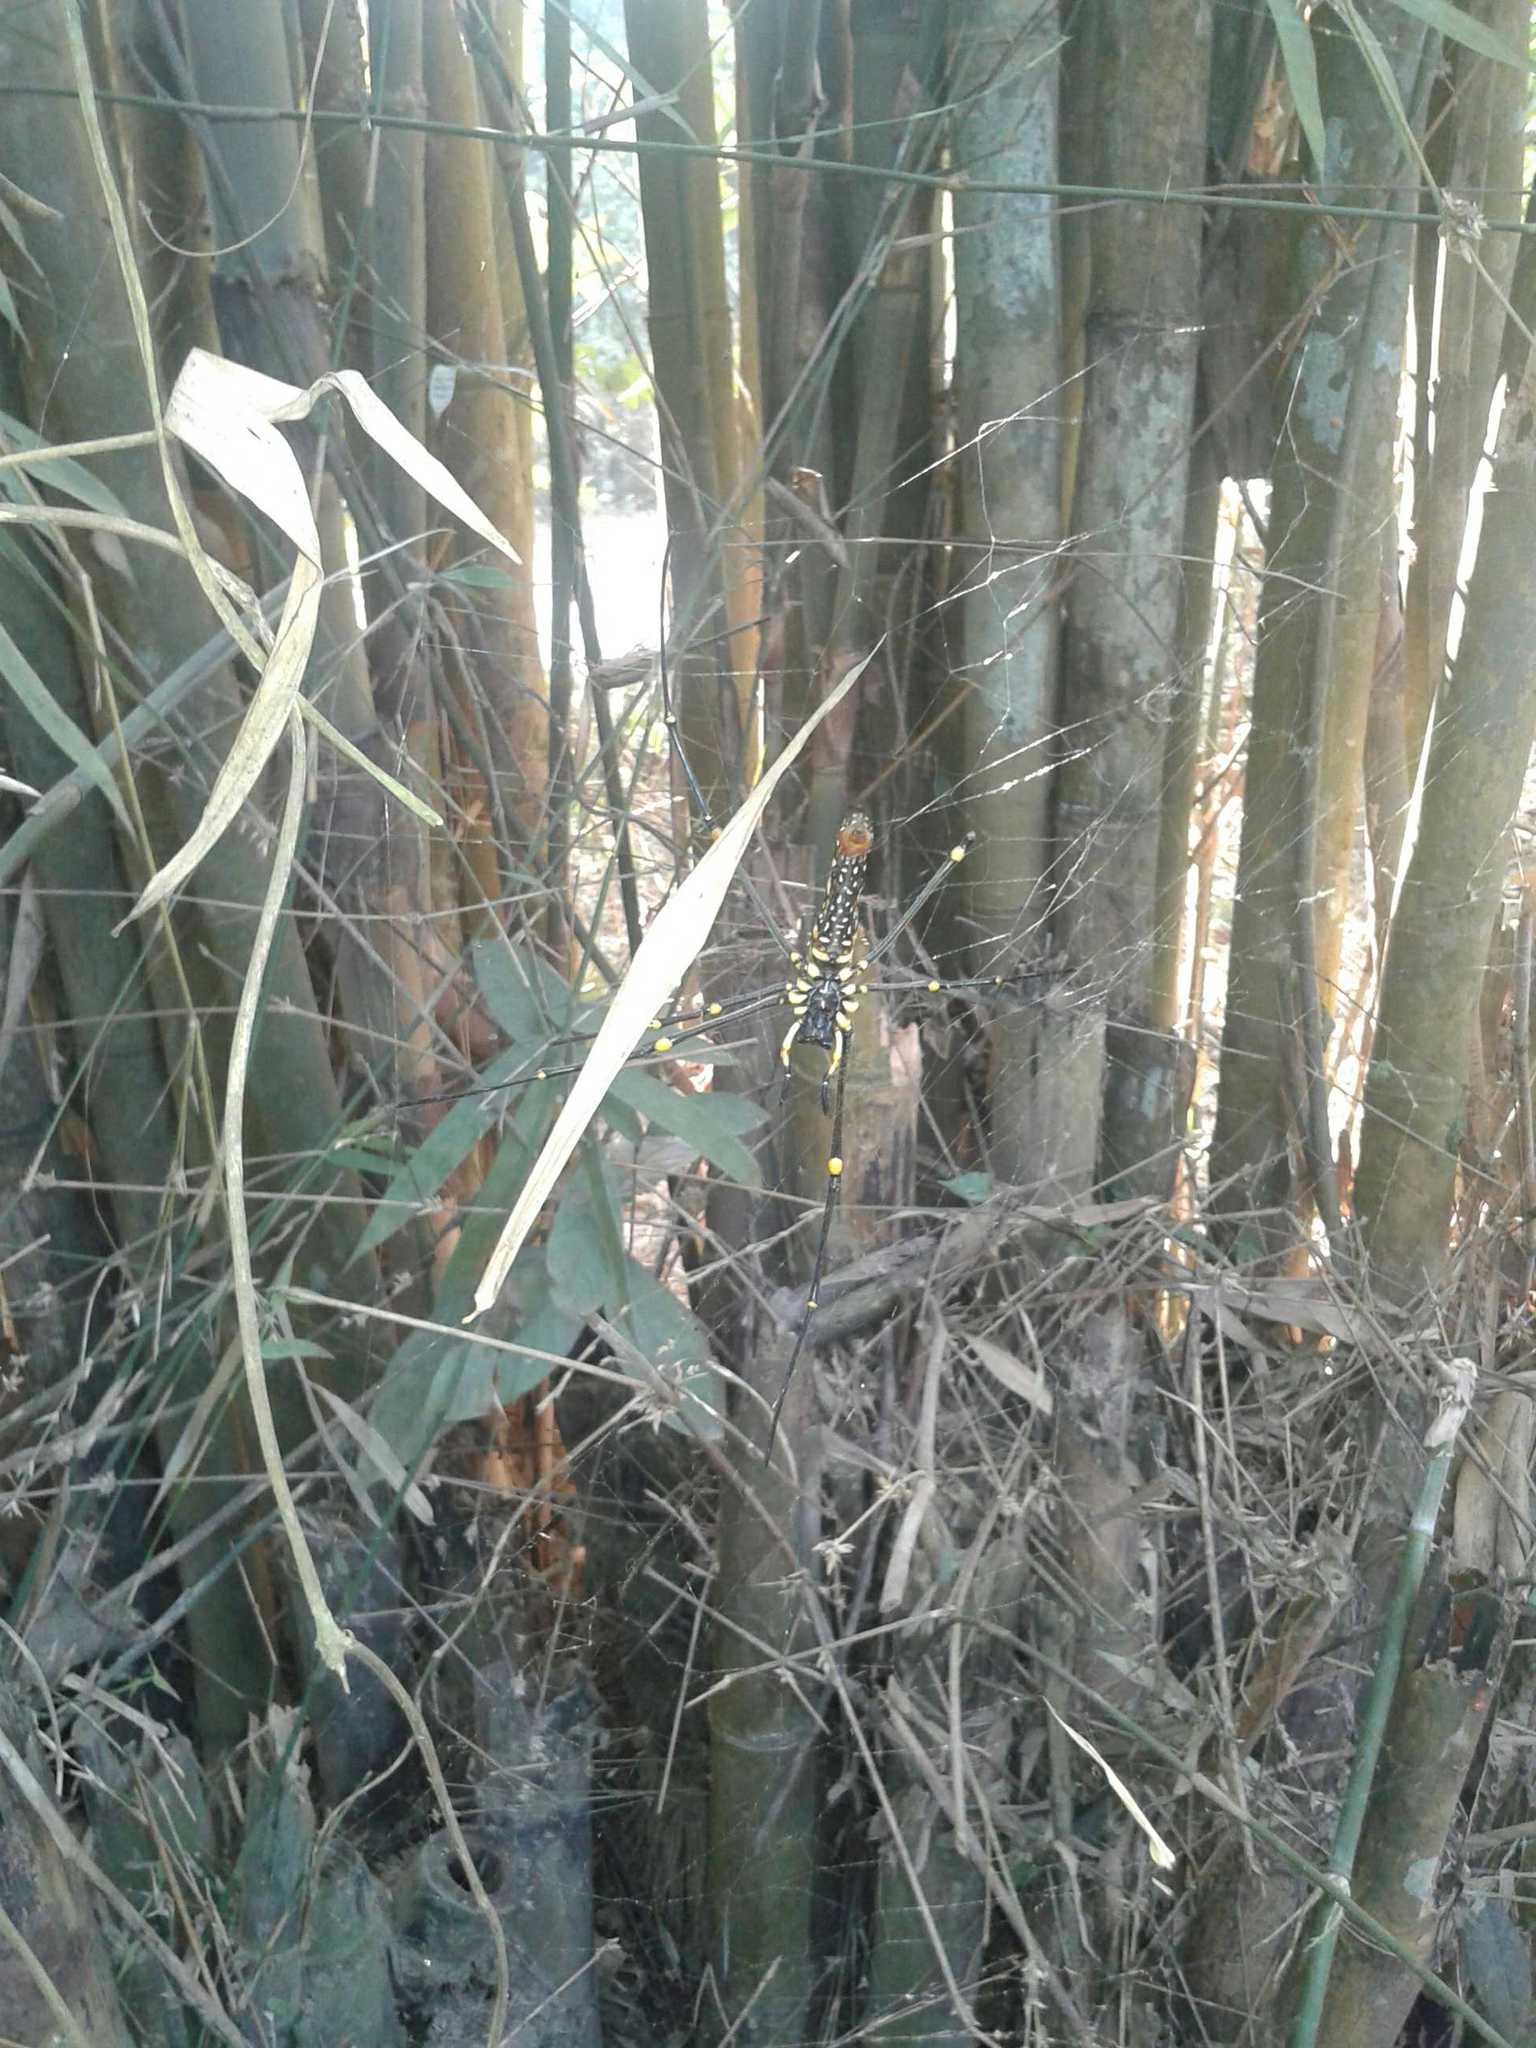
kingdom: Animalia
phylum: Arthropoda
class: Arachnida
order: Araneae
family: Araneidae
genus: Nephila
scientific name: Nephila pilipes
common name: Giant golden orb weaver
